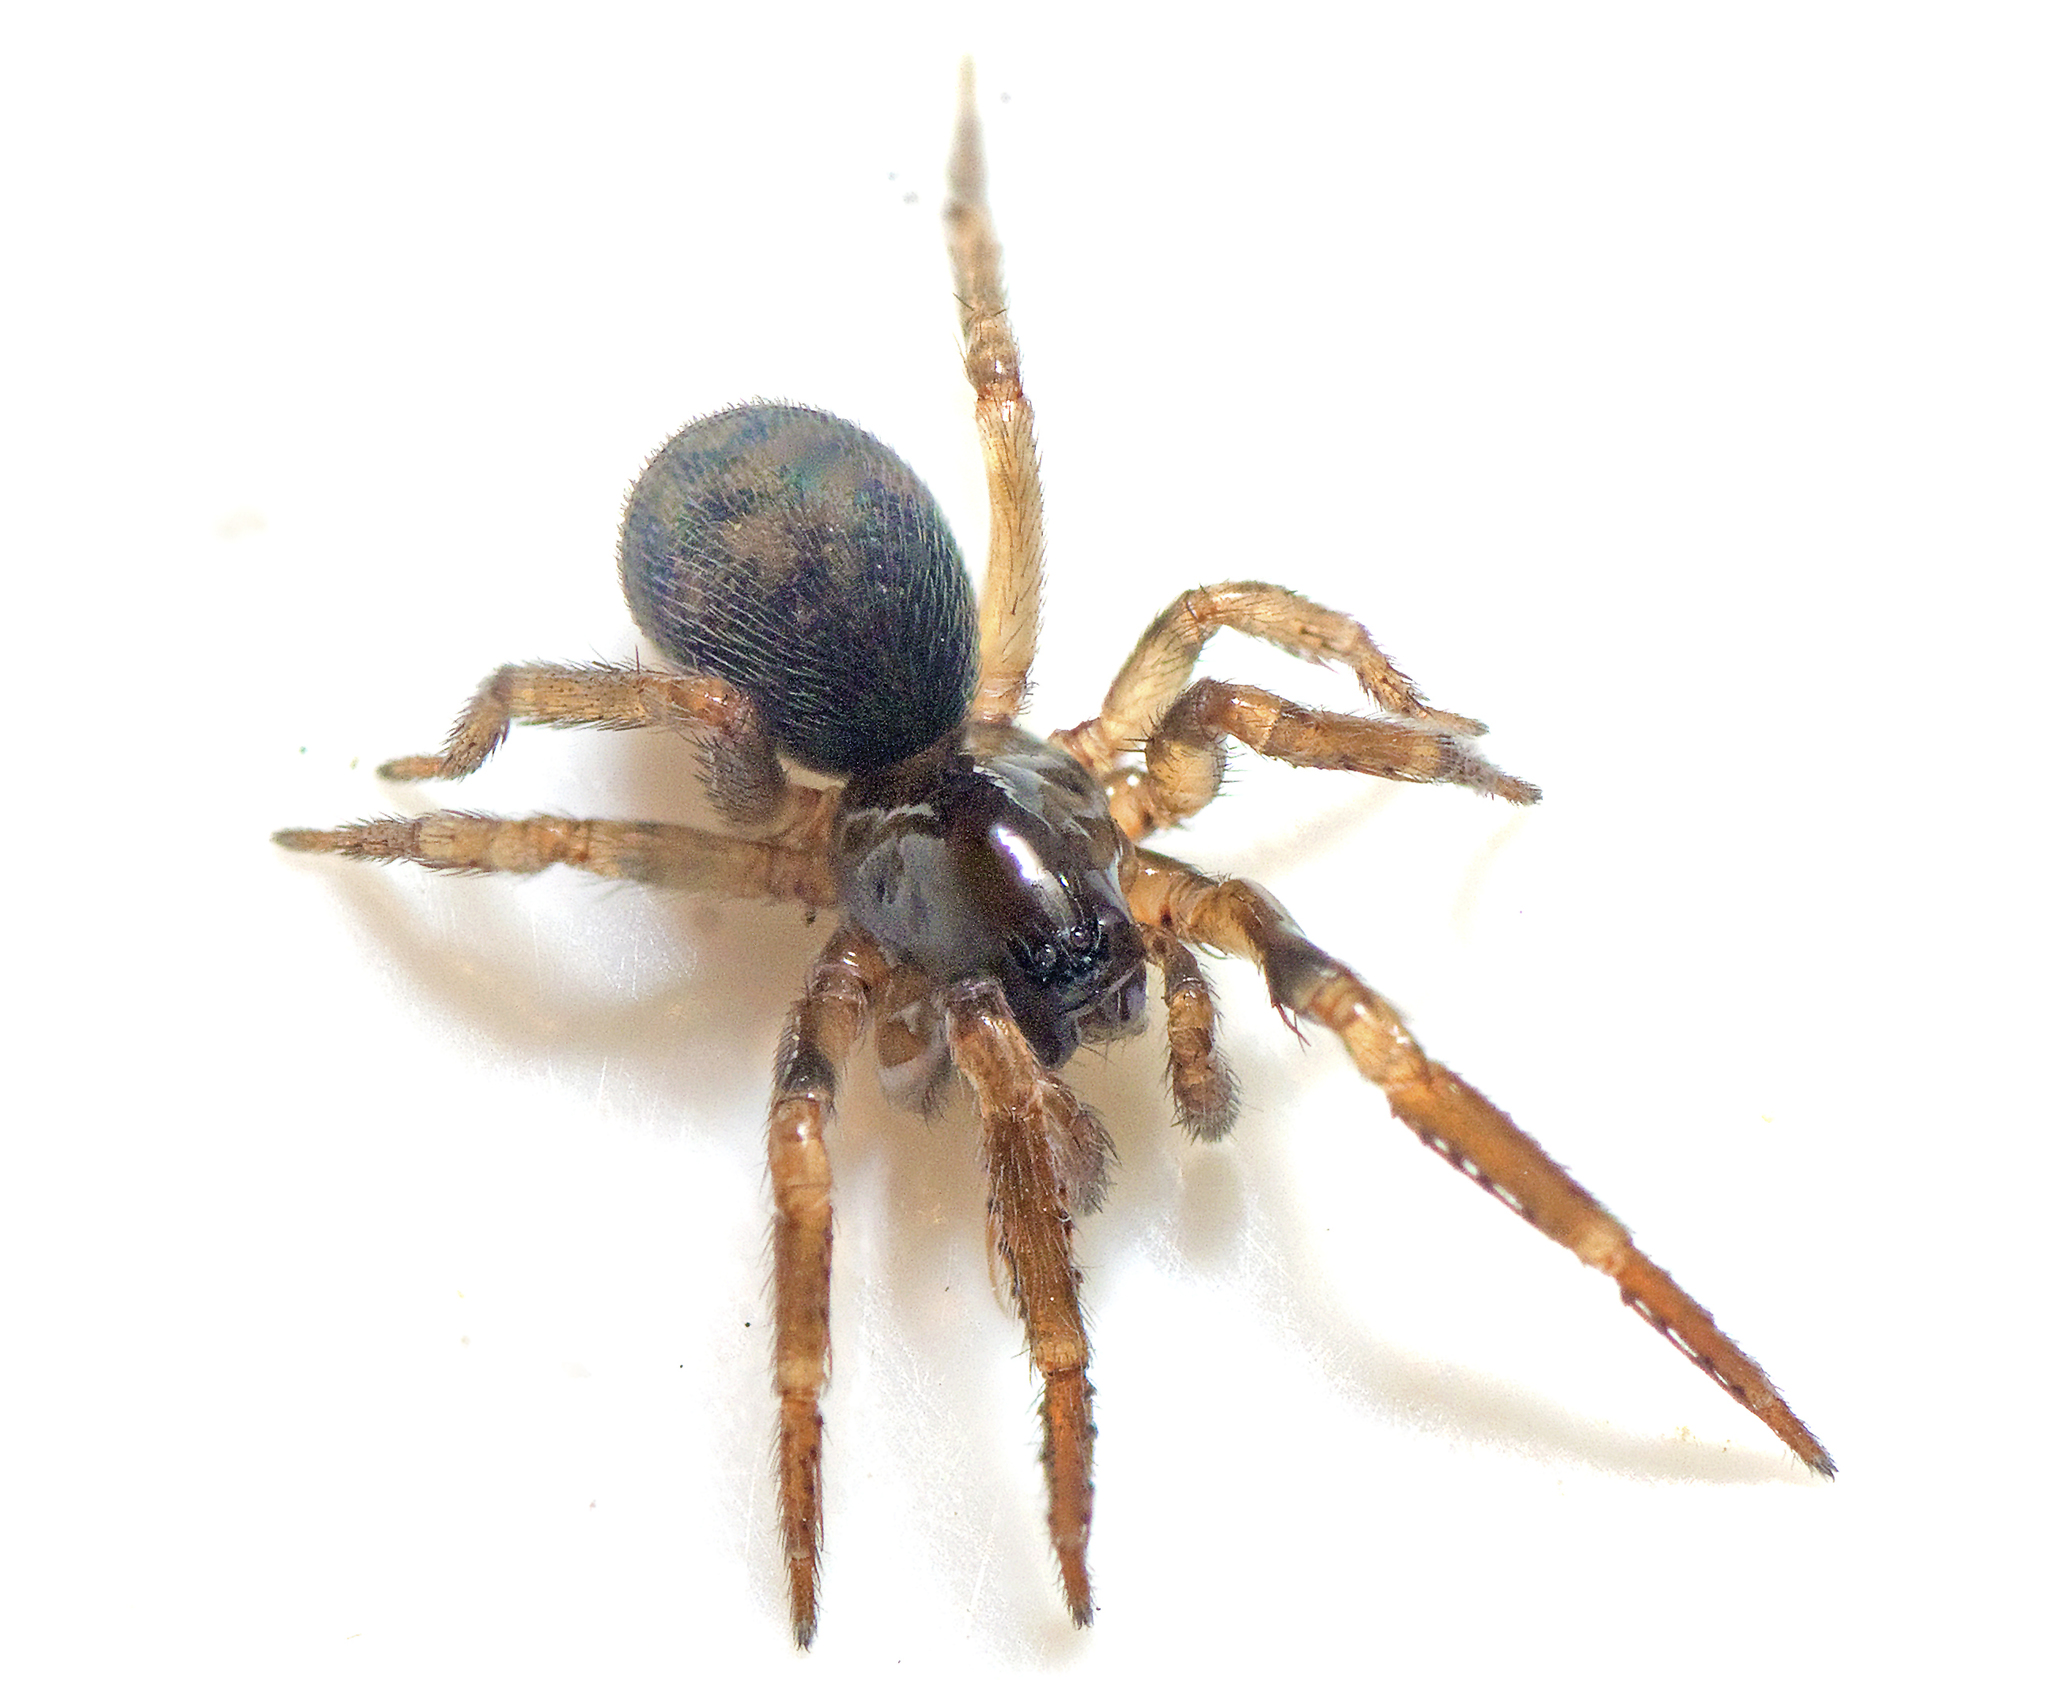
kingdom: Animalia
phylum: Arthropoda
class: Arachnida
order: Araneae
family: Amaurobiidae
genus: Dardurus
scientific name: Dardurus spinipes
